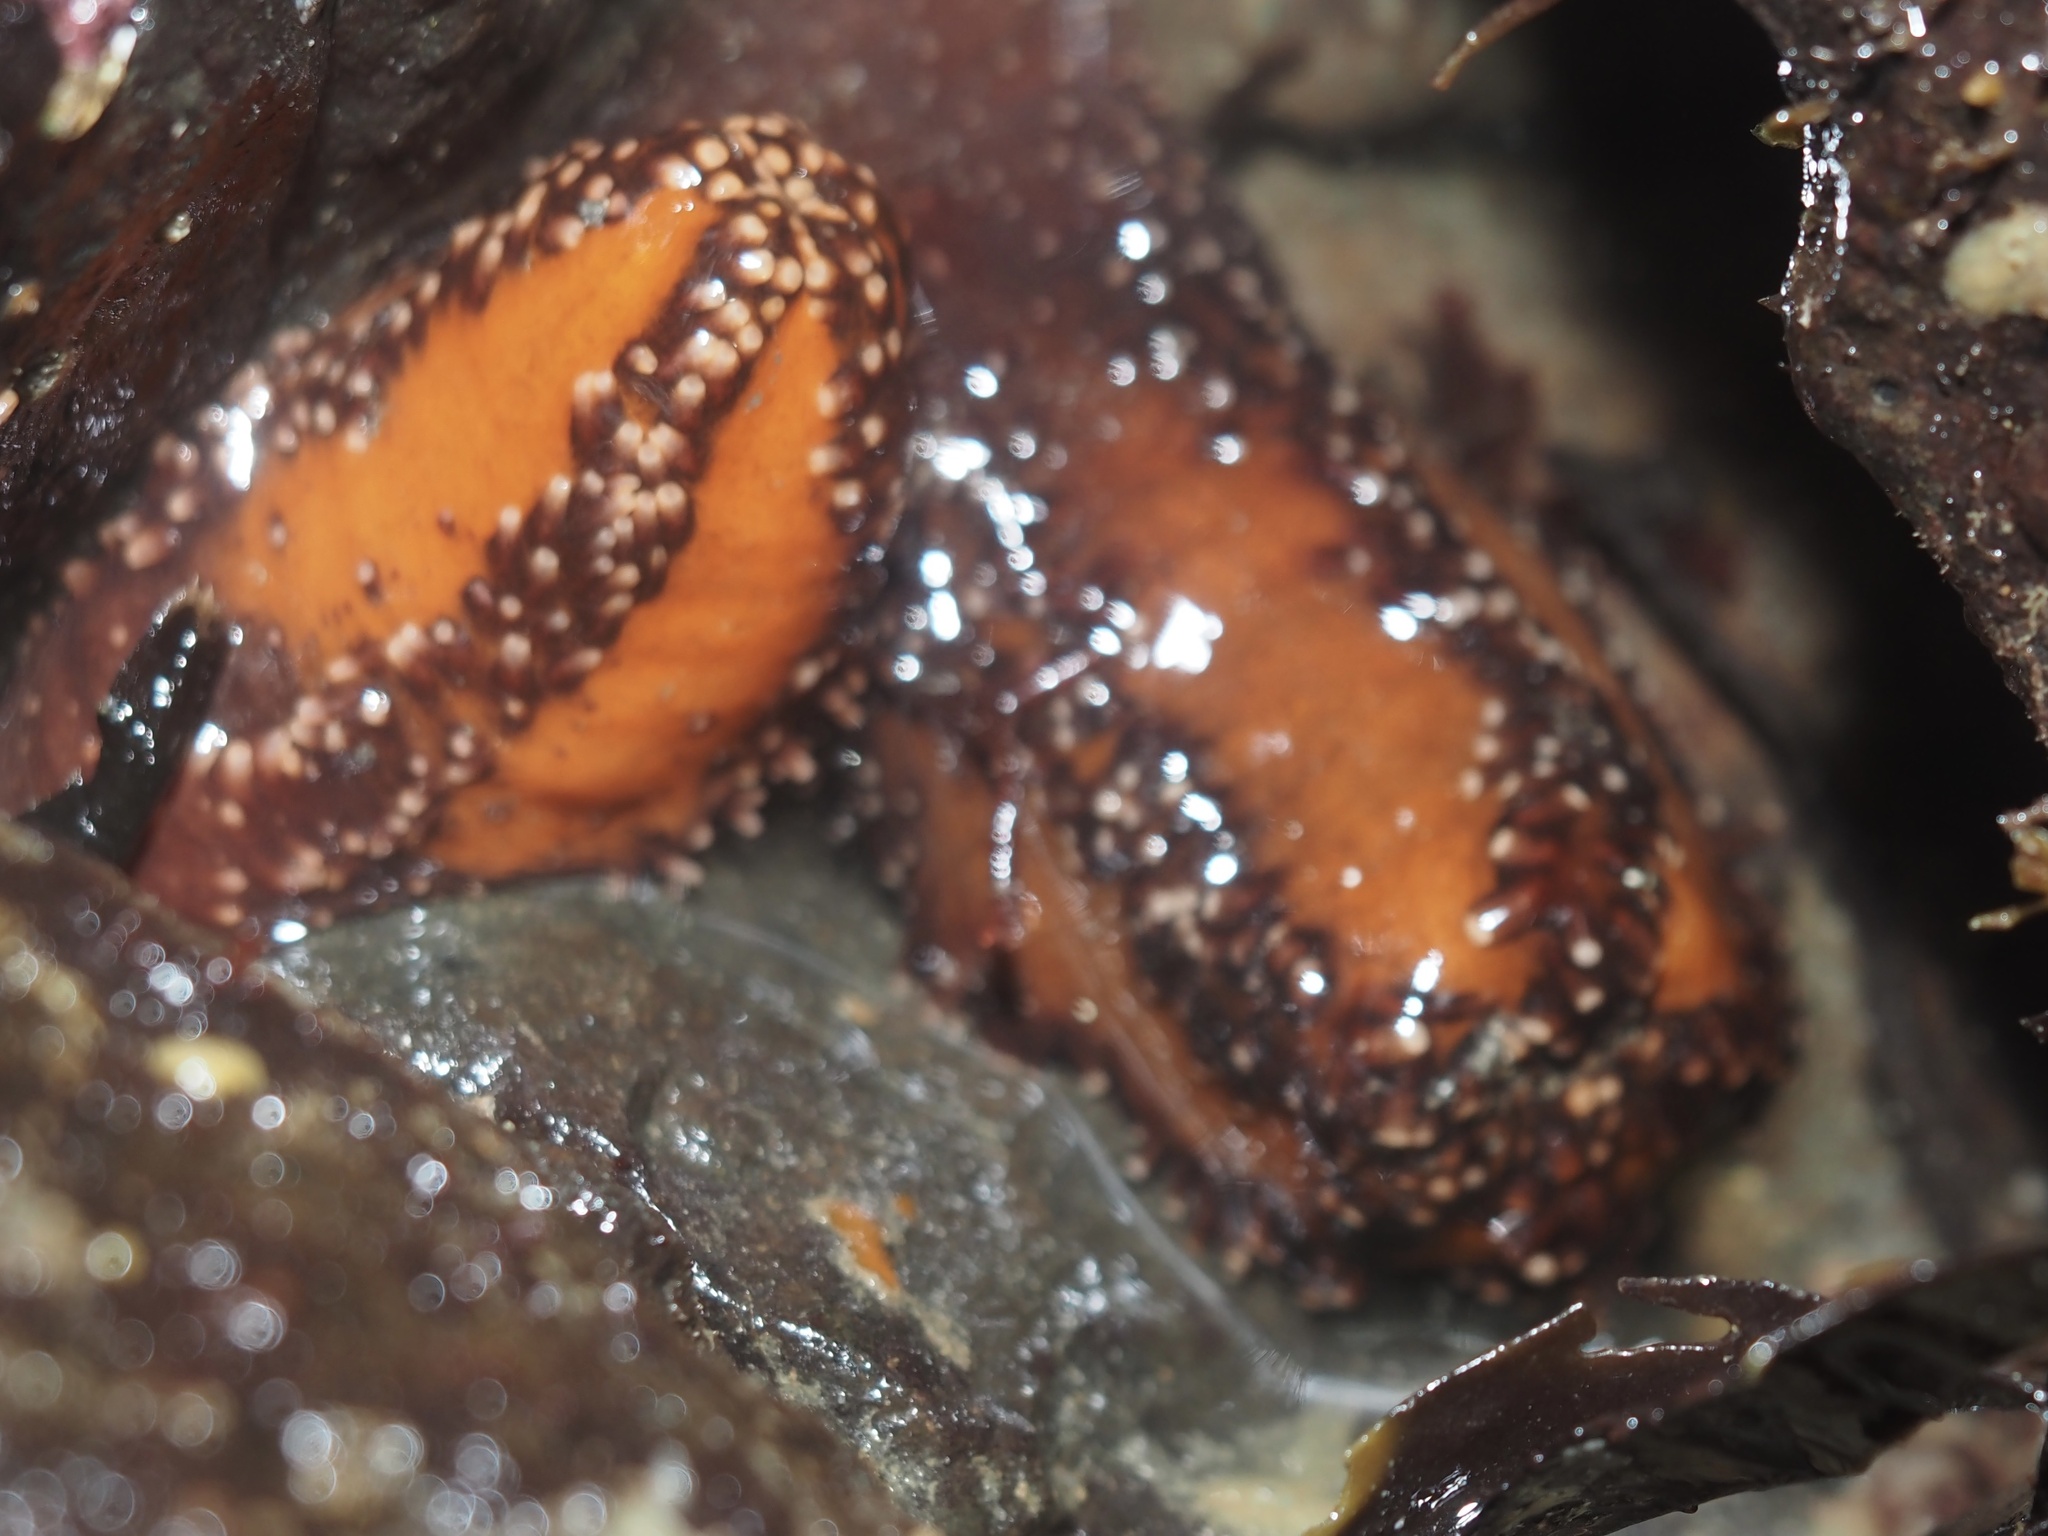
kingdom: Animalia
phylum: Echinodermata
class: Holothuroidea
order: Dendrochirotida
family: Cucumariidae
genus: Cucumaria
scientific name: Cucumaria miniata
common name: Orange sea cucumber
